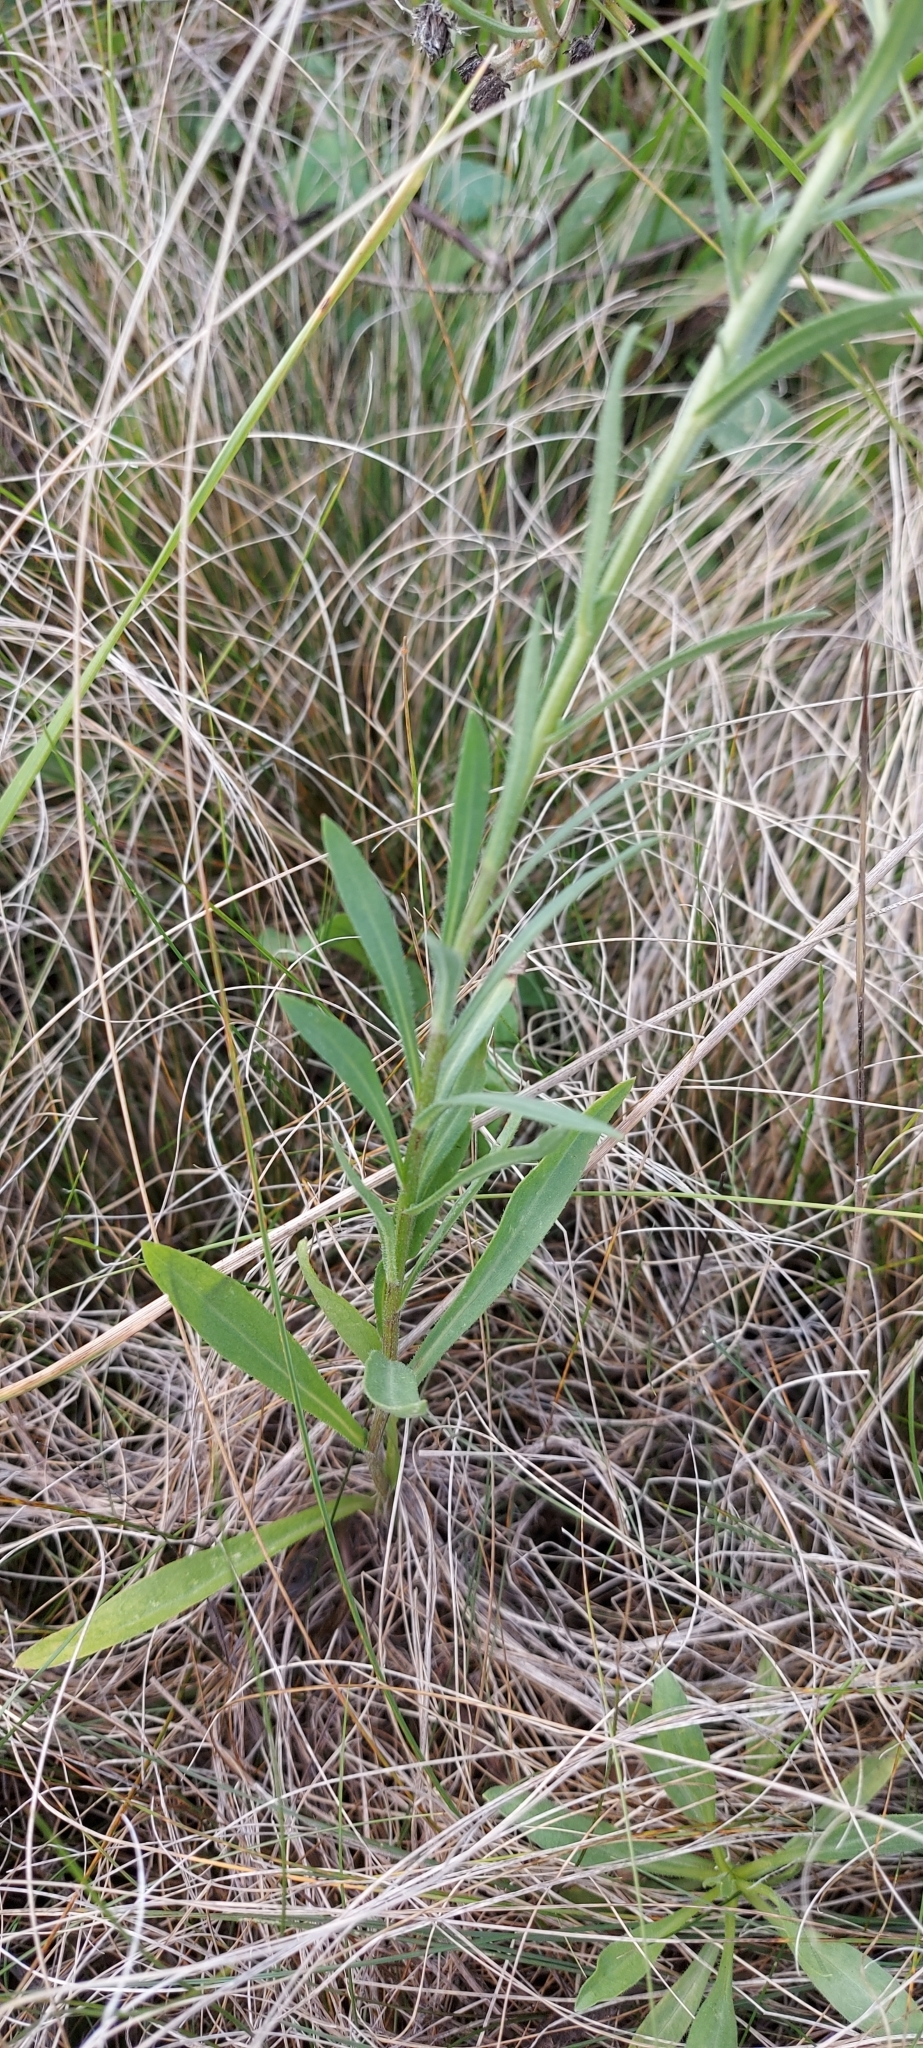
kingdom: Plantae
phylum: Tracheophyta
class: Magnoliopsida
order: Asterales
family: Asteraceae
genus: Erigeron
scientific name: Erigeron acris
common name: Blue fleabane
